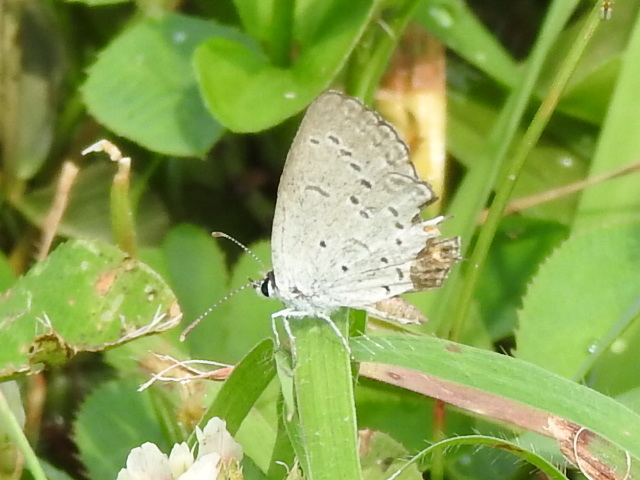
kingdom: Animalia
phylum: Arthropoda
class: Insecta
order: Lepidoptera
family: Lycaenidae
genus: Elkalyce
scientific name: Elkalyce comyntas
